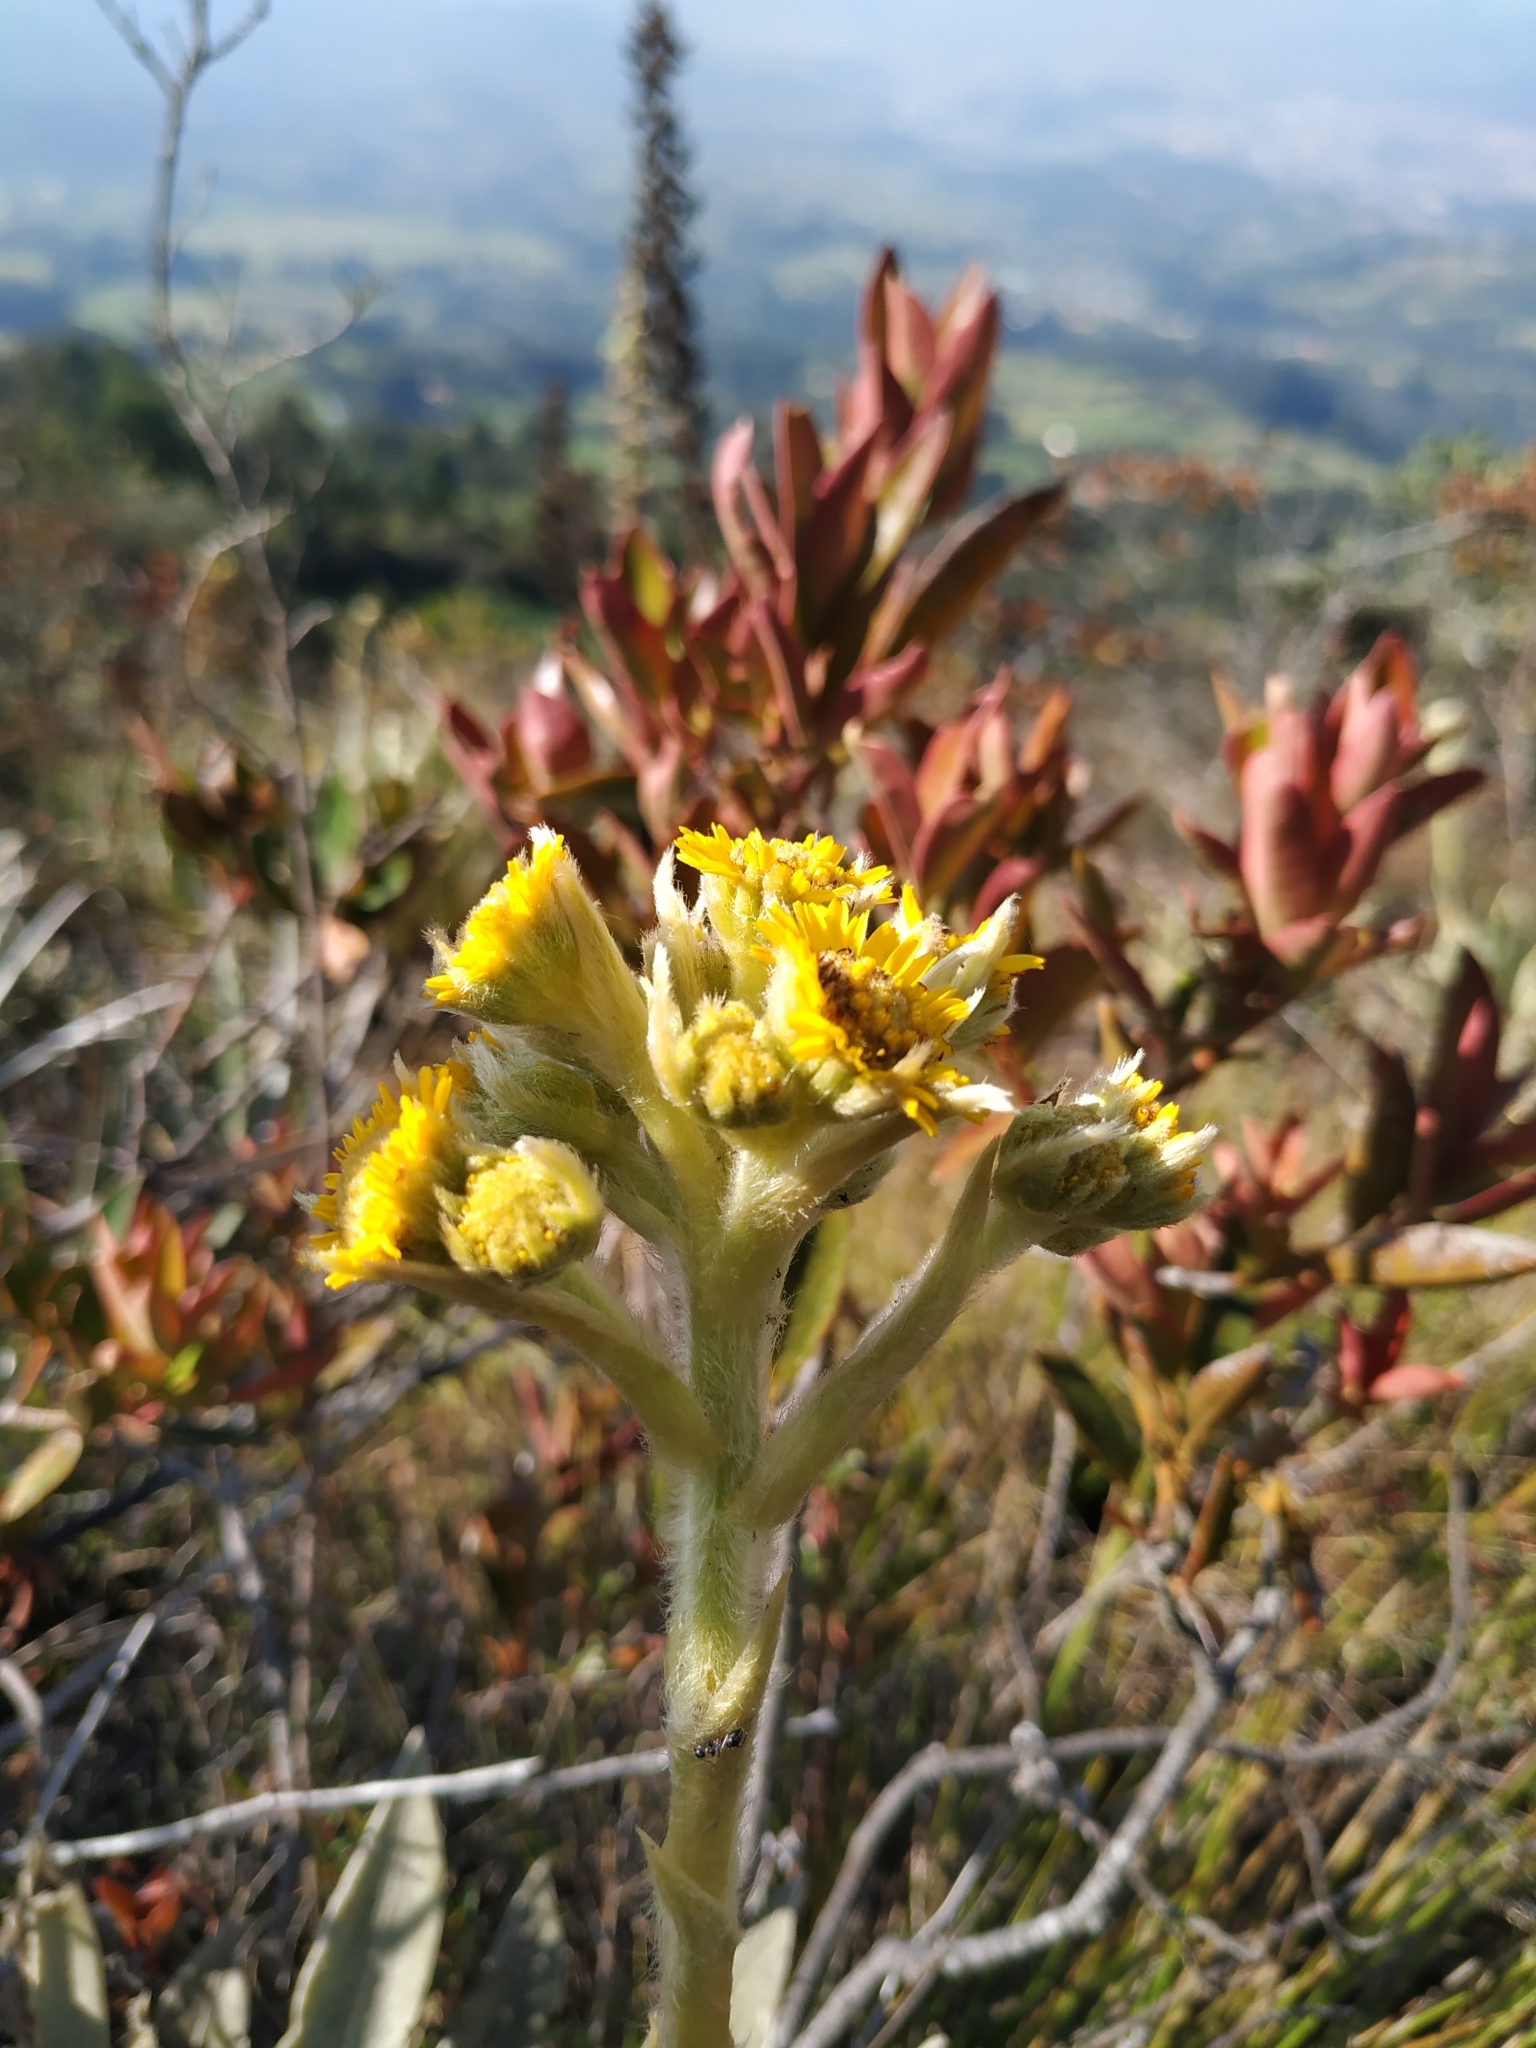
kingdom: Plantae
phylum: Tracheophyta
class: Magnoliopsida
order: Asterales
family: Asteraceae
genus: Espeletia
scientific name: Espeletia muiska
